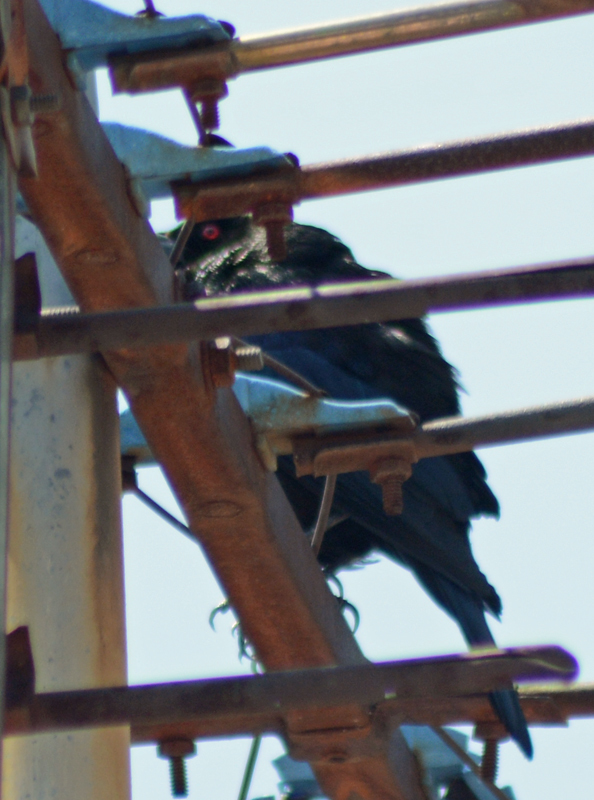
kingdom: Animalia
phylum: Chordata
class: Aves
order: Passeriformes
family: Icteridae
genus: Molothrus
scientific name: Molothrus aeneus
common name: Bronzed cowbird
